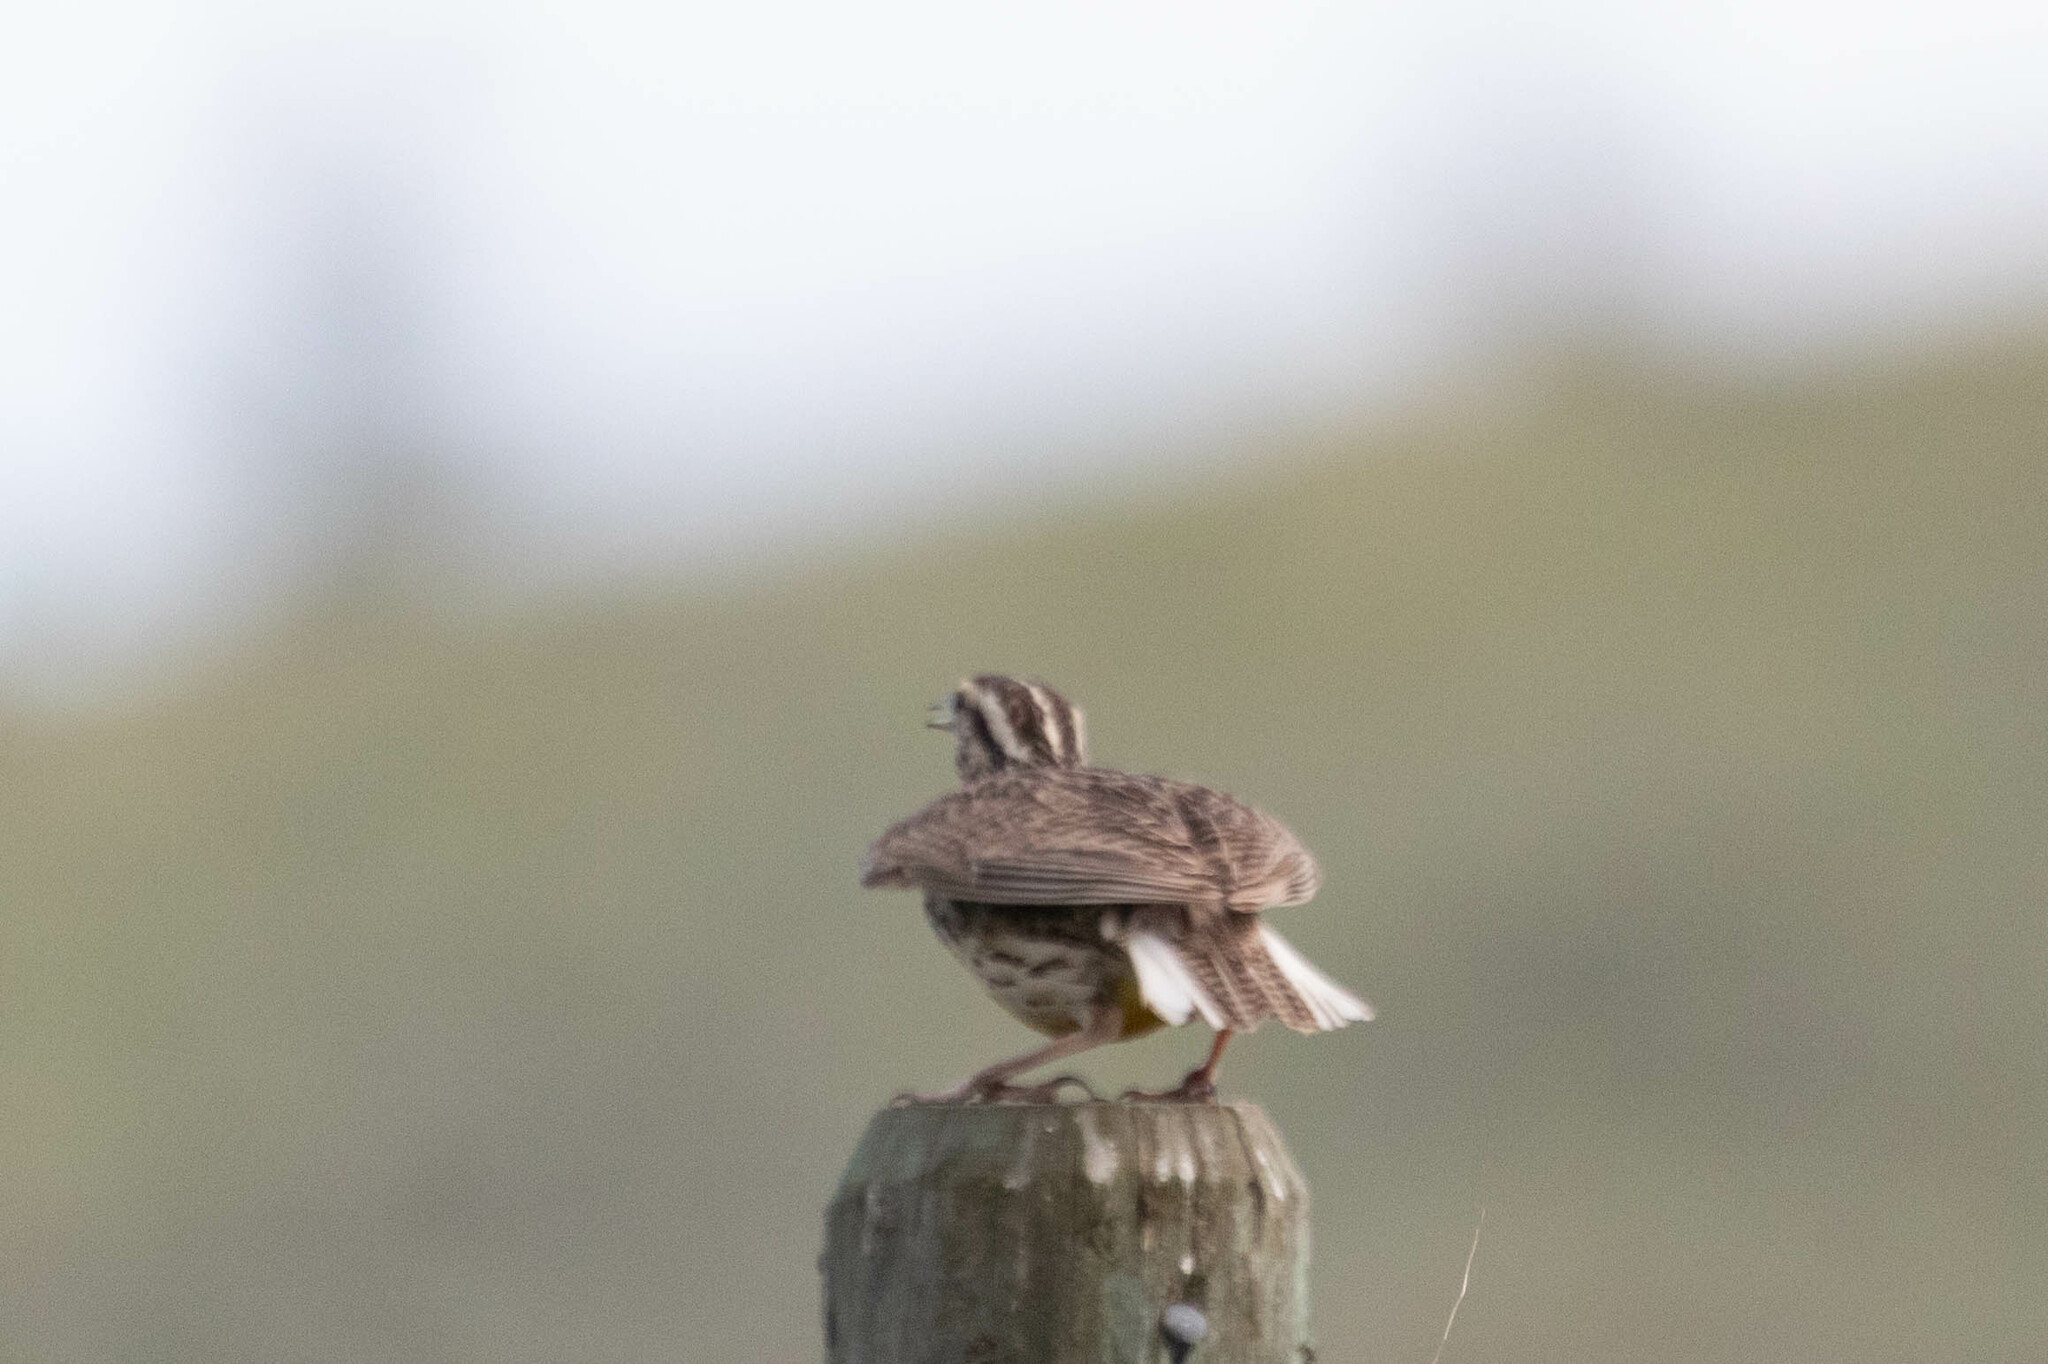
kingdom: Animalia
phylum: Chordata
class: Aves
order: Passeriformes
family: Icteridae
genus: Sturnella
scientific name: Sturnella neglecta
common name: Western meadowlark
